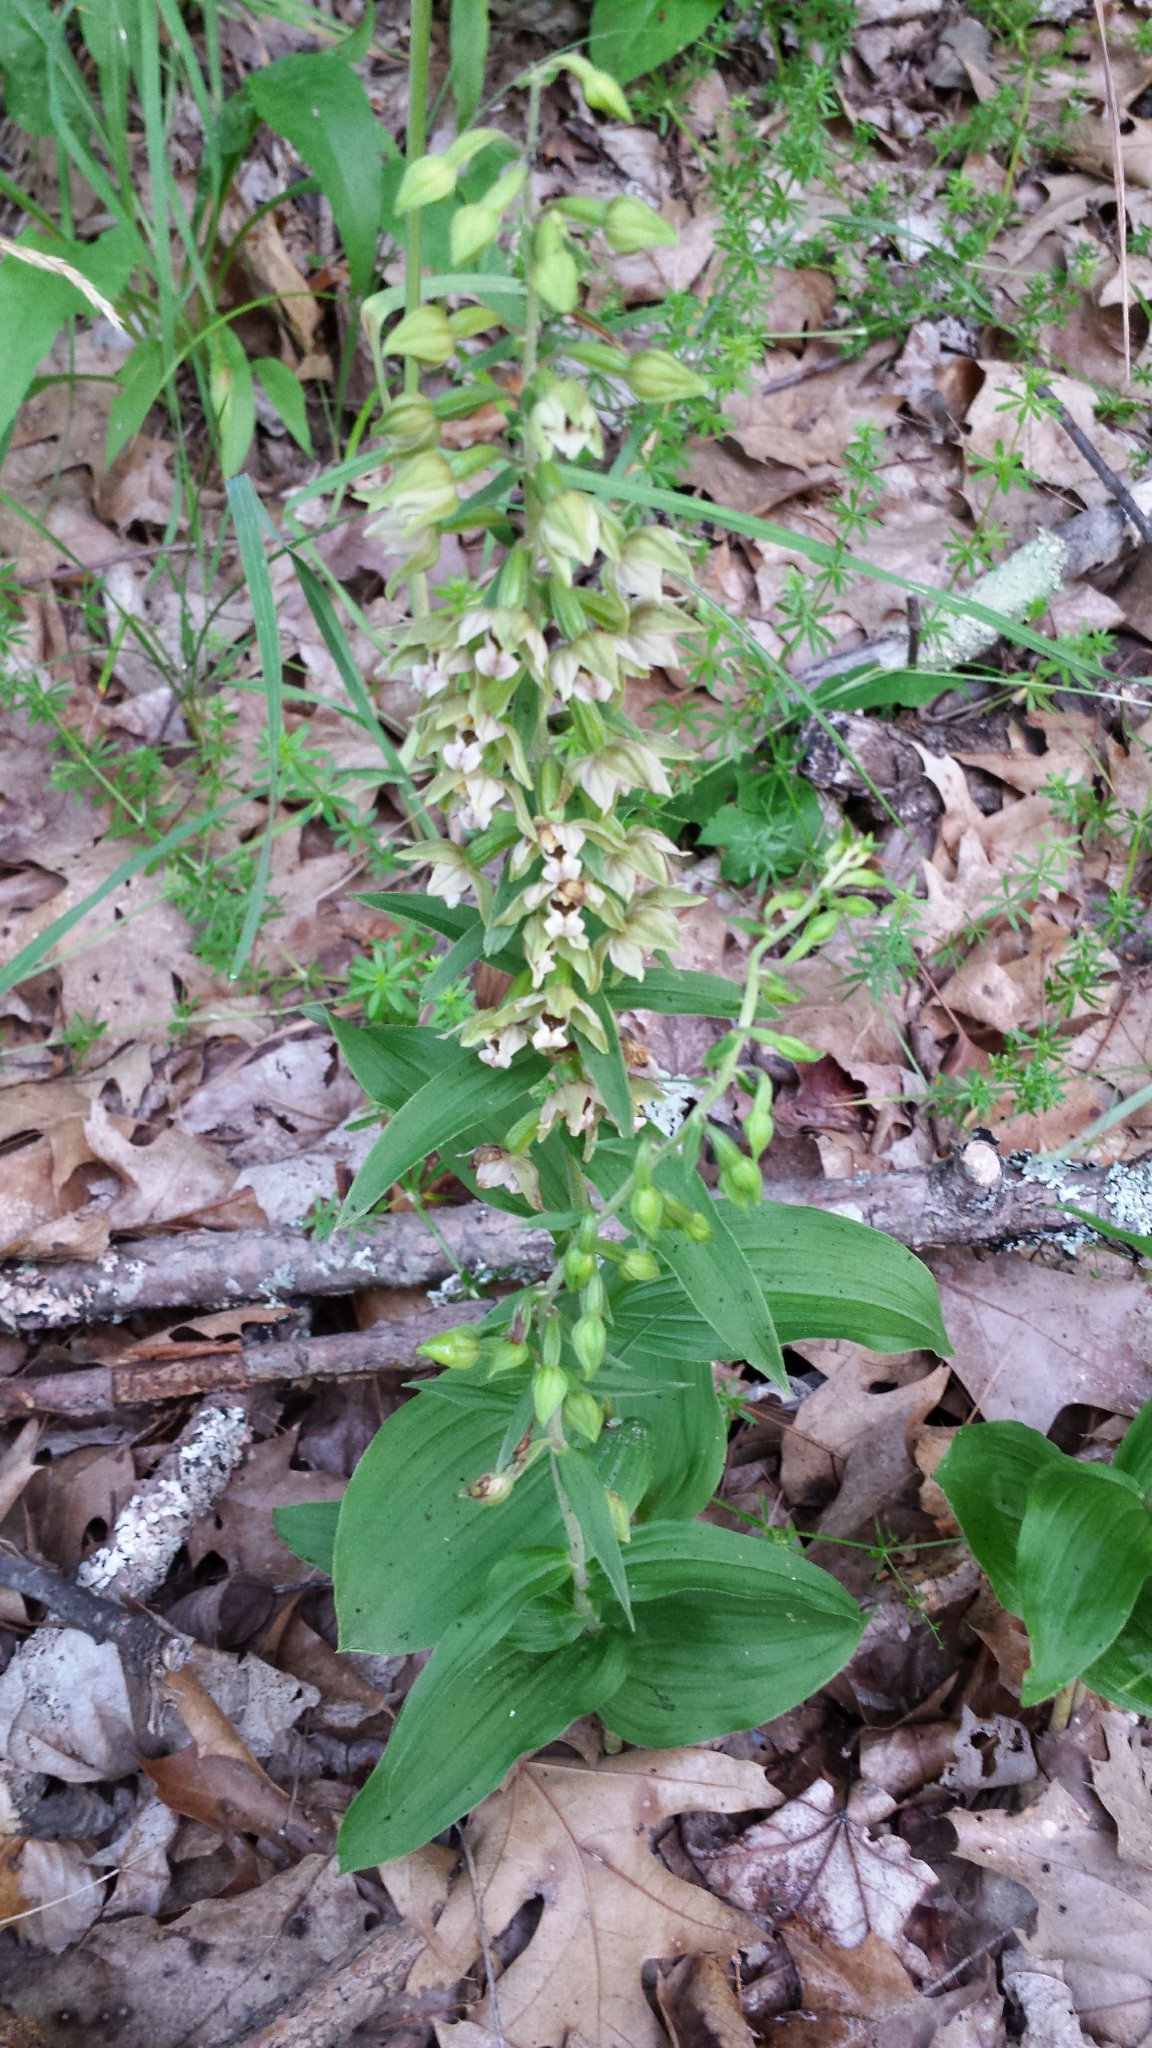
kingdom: Plantae
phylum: Tracheophyta
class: Liliopsida
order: Asparagales
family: Orchidaceae
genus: Epipactis
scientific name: Epipactis helleborine
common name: Broad-leaved helleborine
